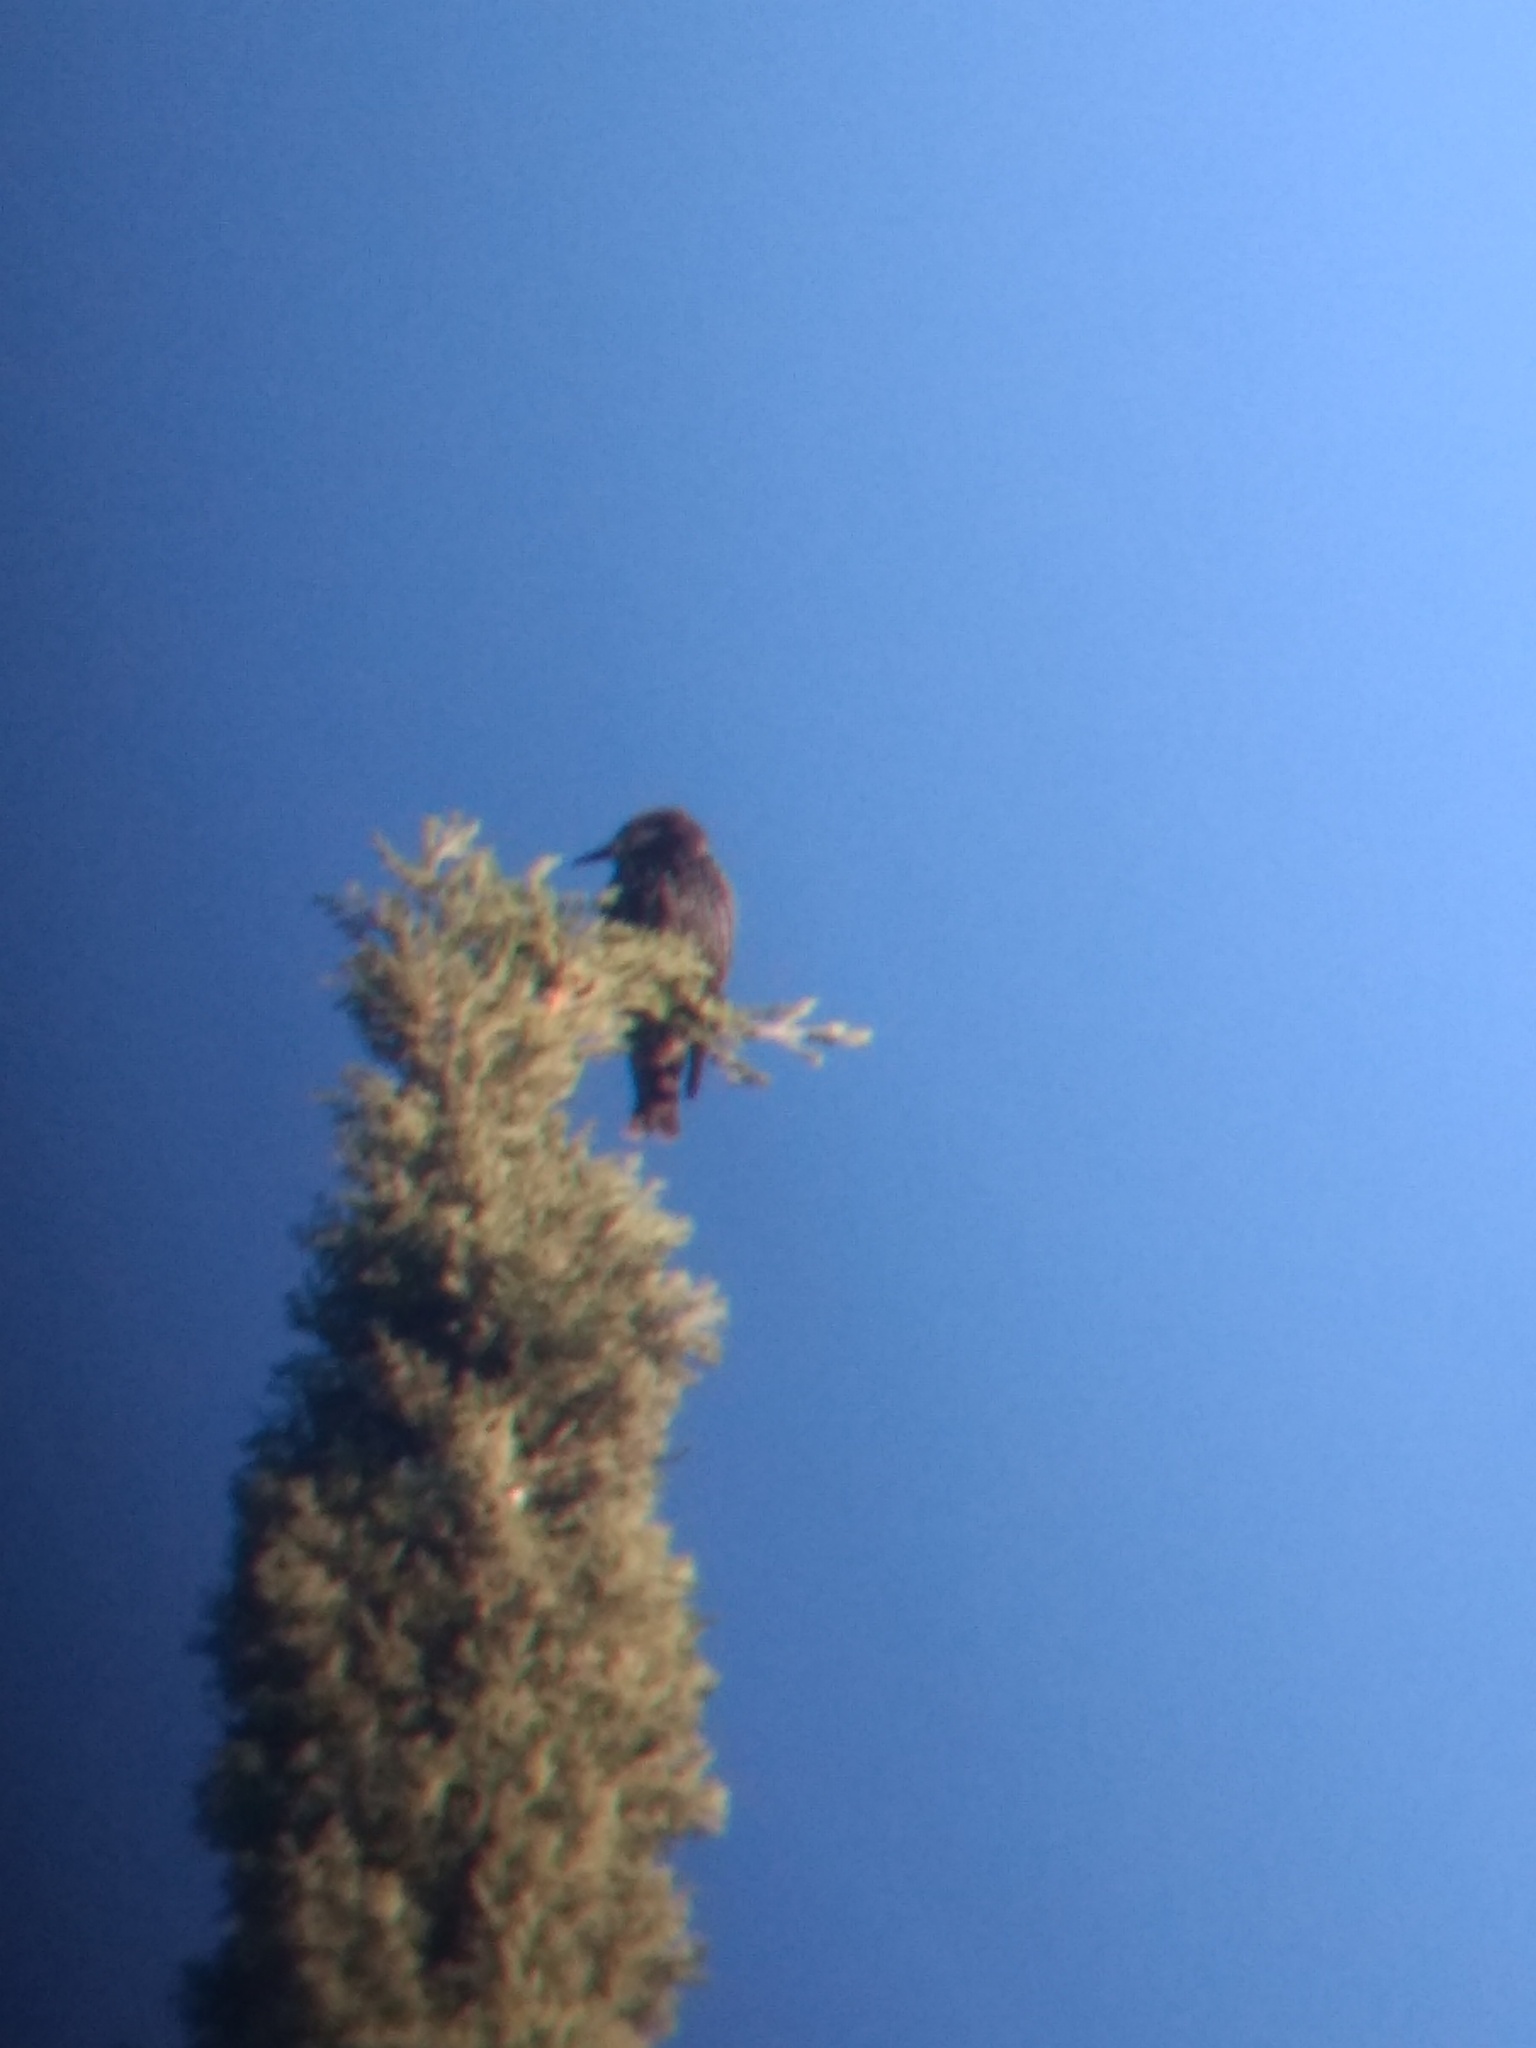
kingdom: Animalia
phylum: Chordata
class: Aves
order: Passeriformes
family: Sturnidae
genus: Sturnus
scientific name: Sturnus vulgaris
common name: Common starling
